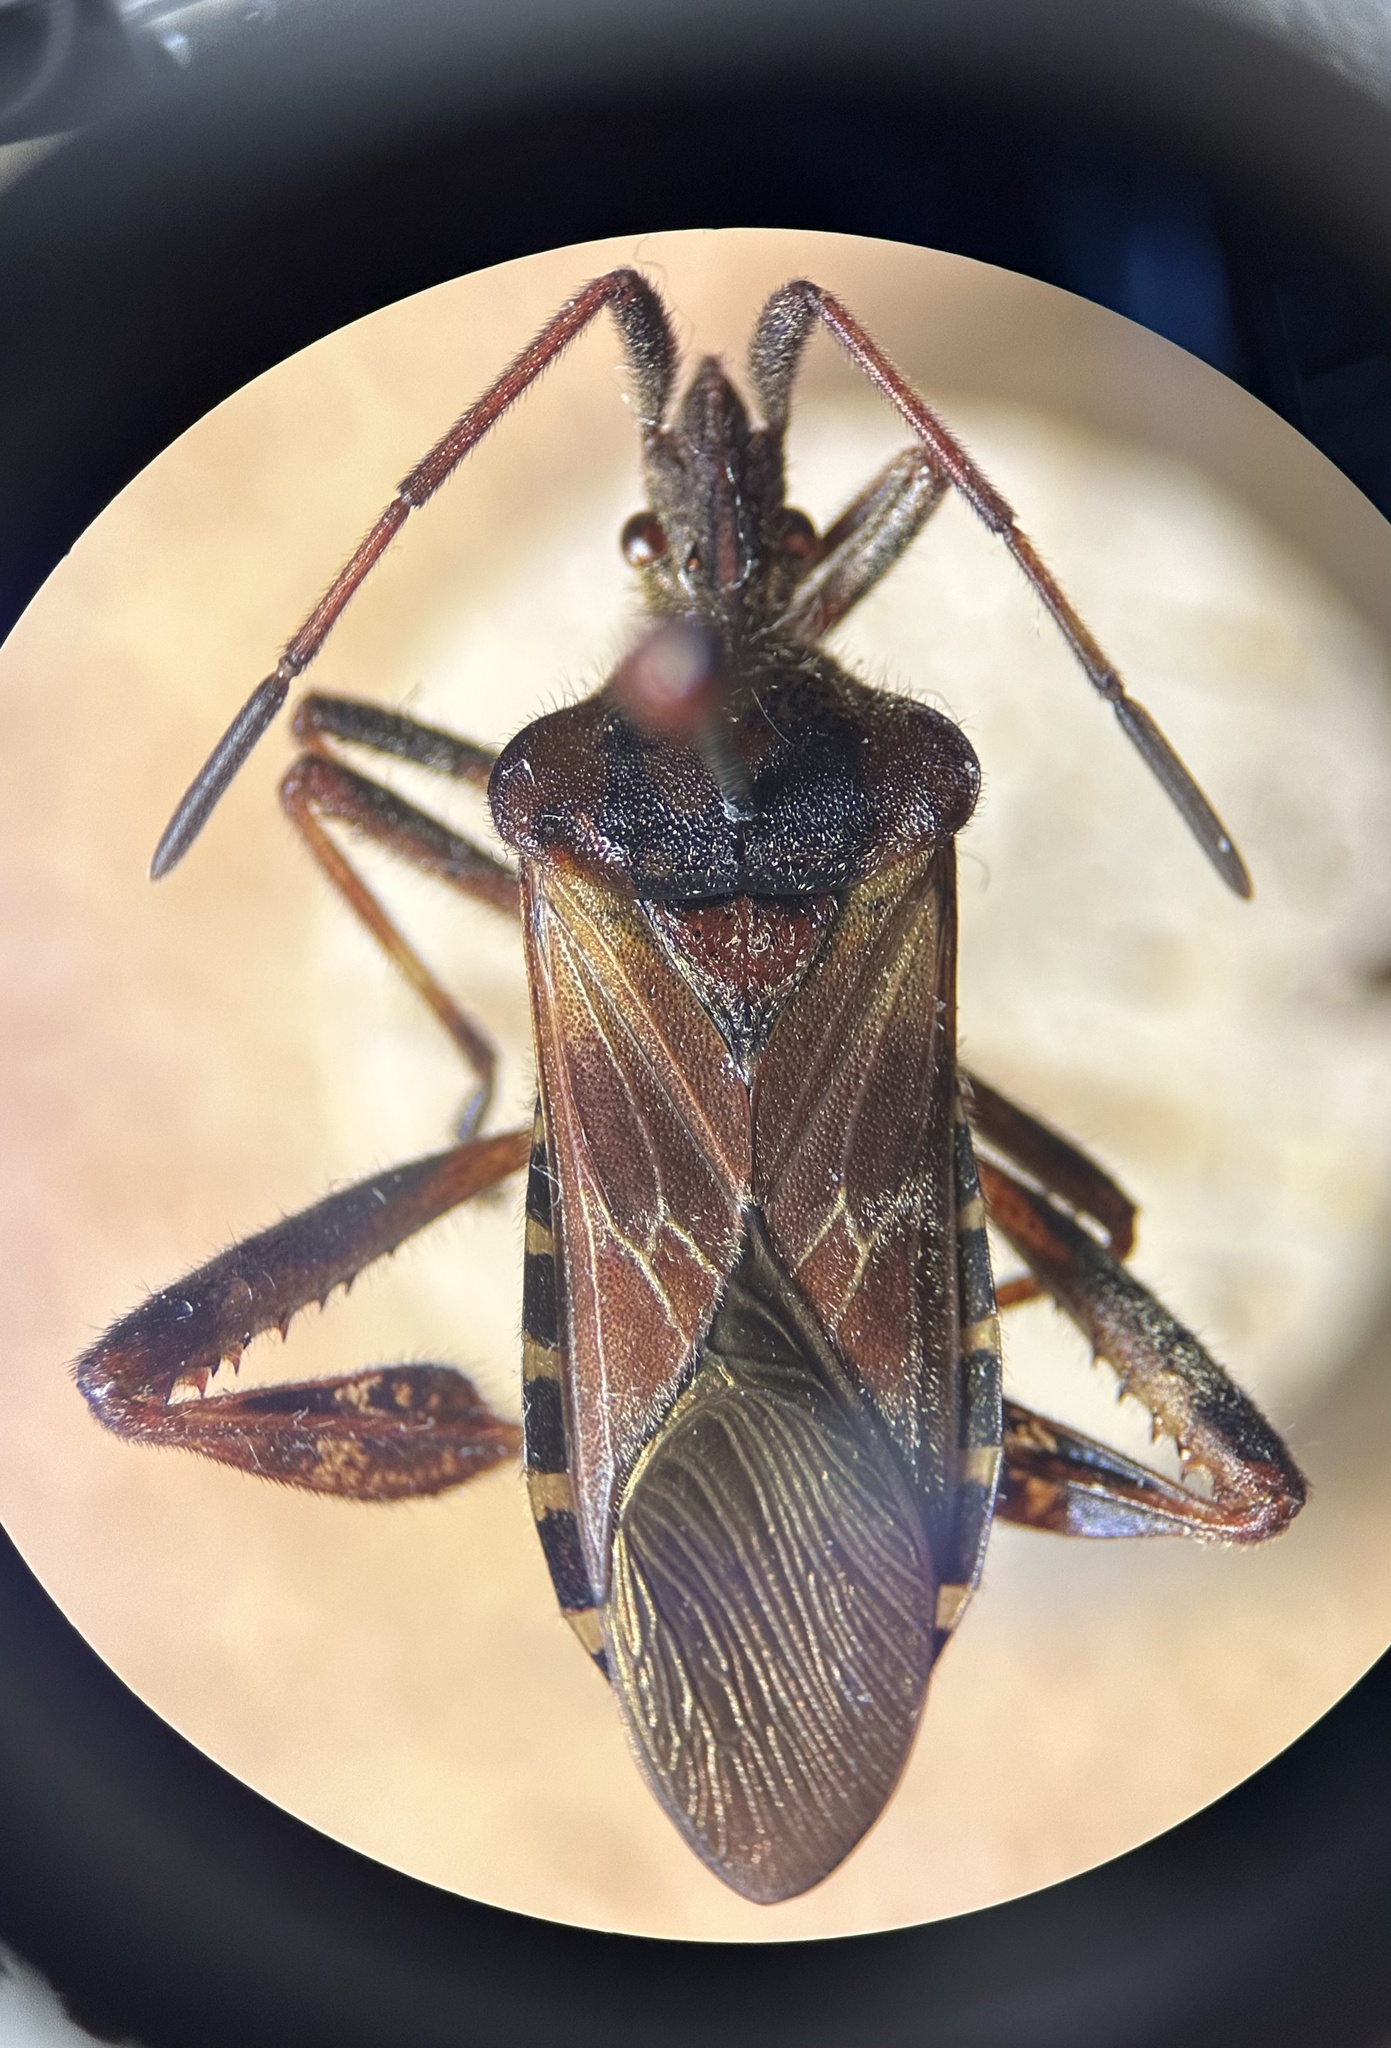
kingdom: Animalia
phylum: Arthropoda
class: Insecta
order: Hemiptera
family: Coreidae
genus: Leptoglossus
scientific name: Leptoglossus occidentalis
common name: Western conifer-seed bug
